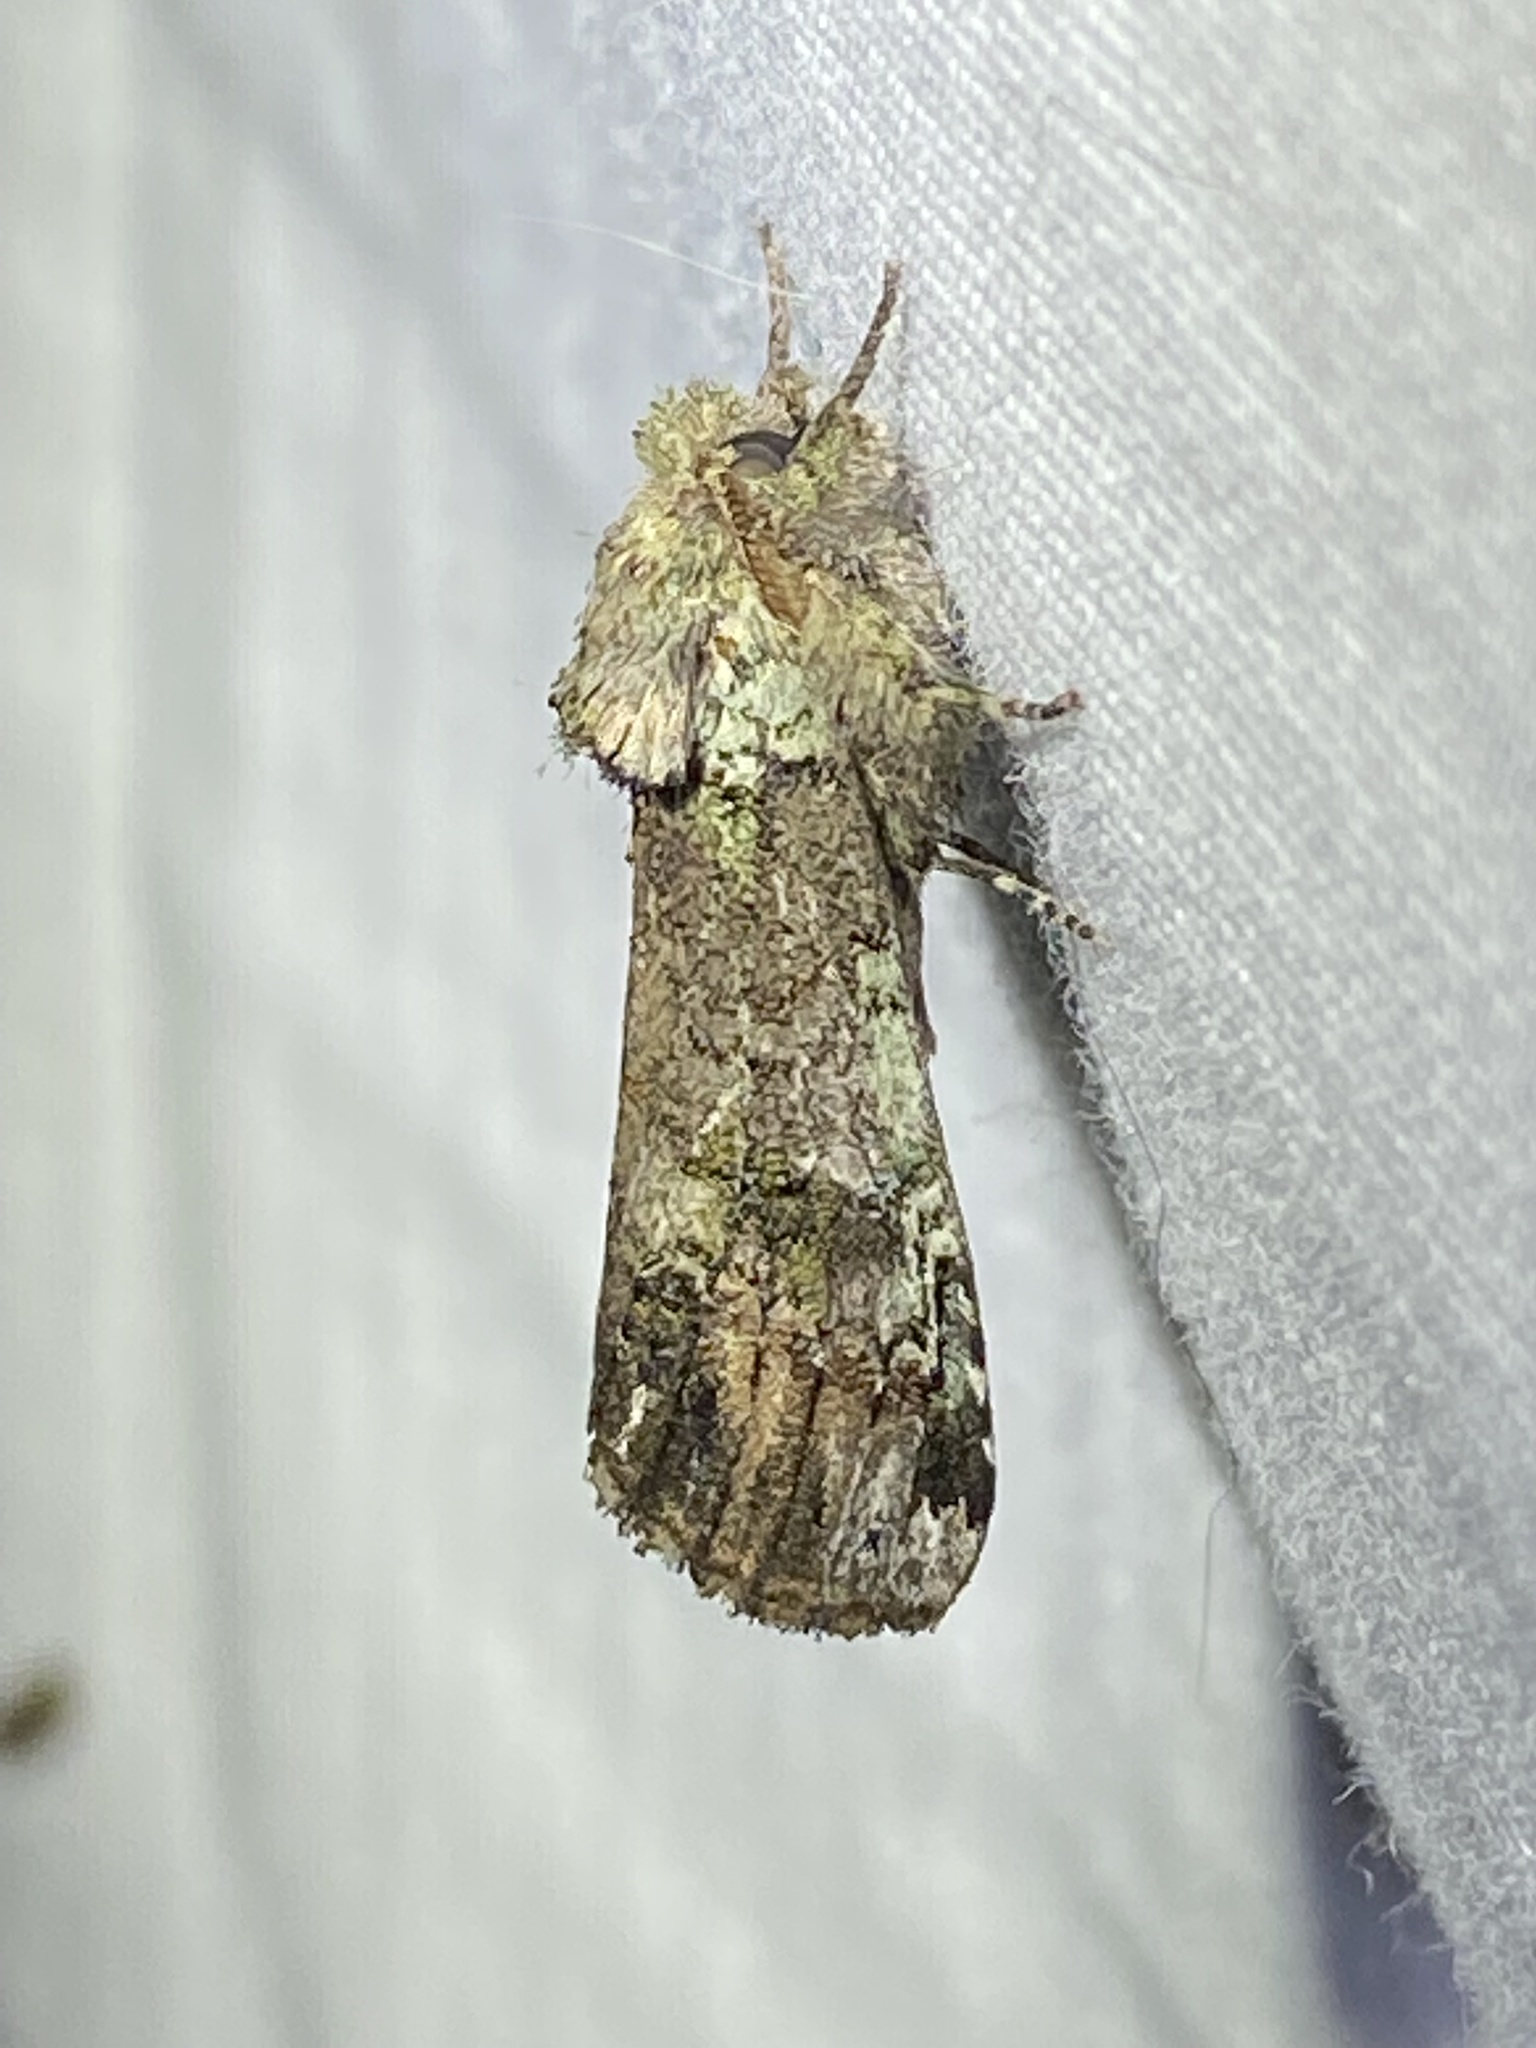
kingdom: Animalia
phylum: Arthropoda
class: Insecta
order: Lepidoptera
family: Notodontidae
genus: Schizura
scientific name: Schizura
